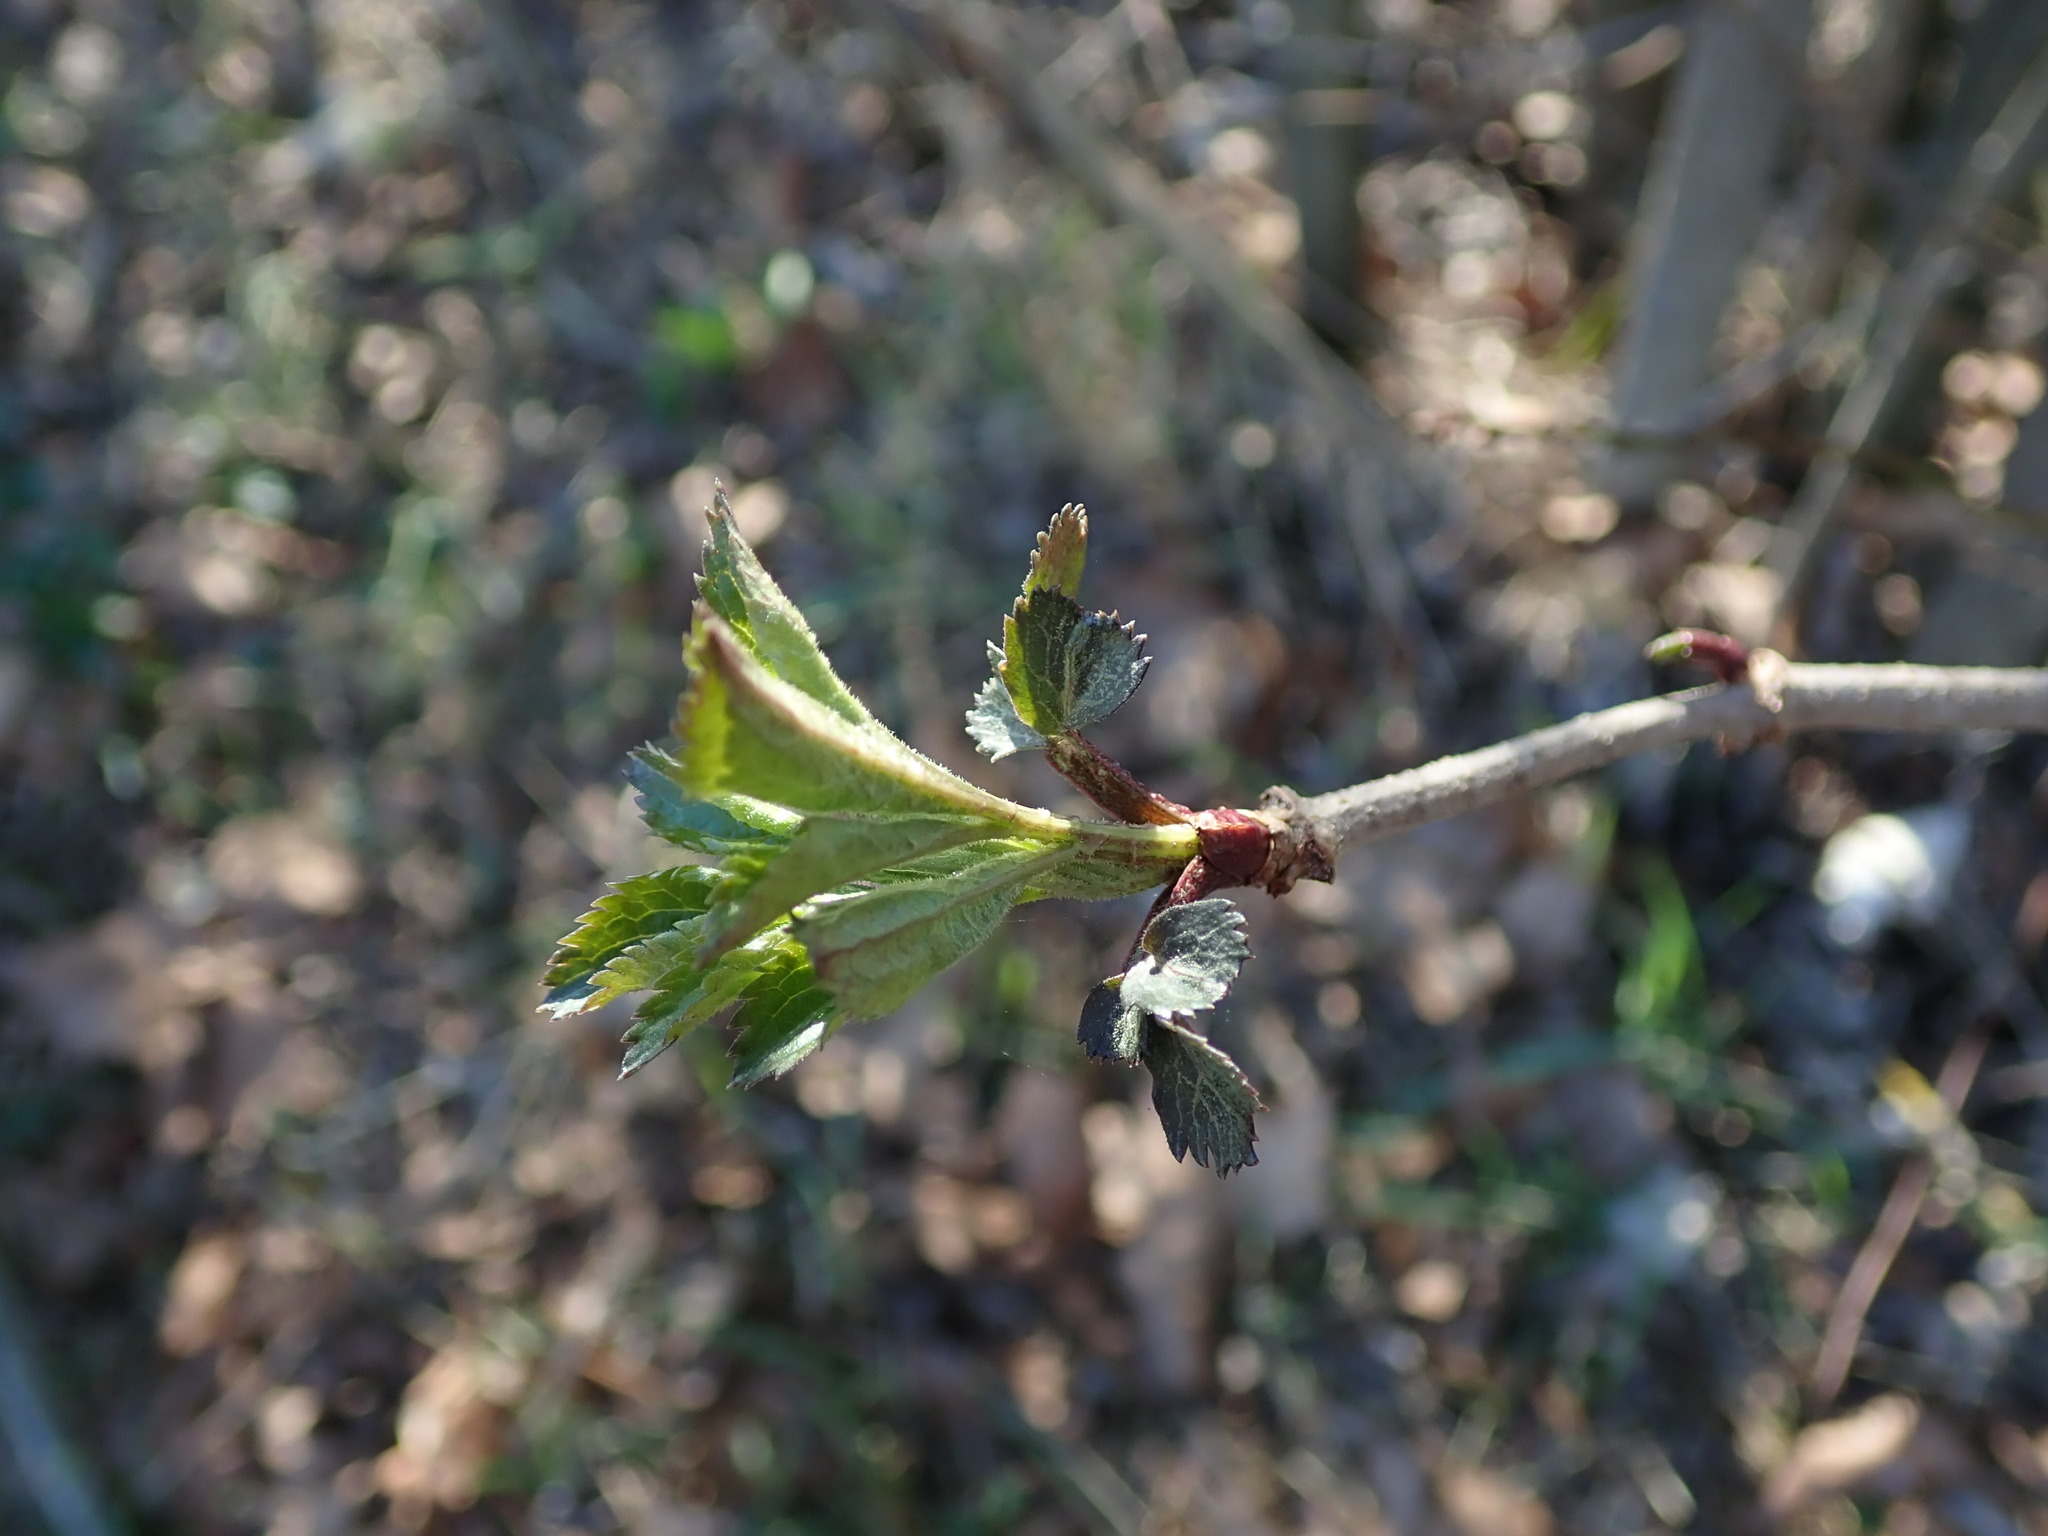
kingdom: Plantae
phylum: Tracheophyta
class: Magnoliopsida
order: Dipsacales
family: Viburnaceae
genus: Sambucus
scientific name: Sambucus nigra
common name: Elder
